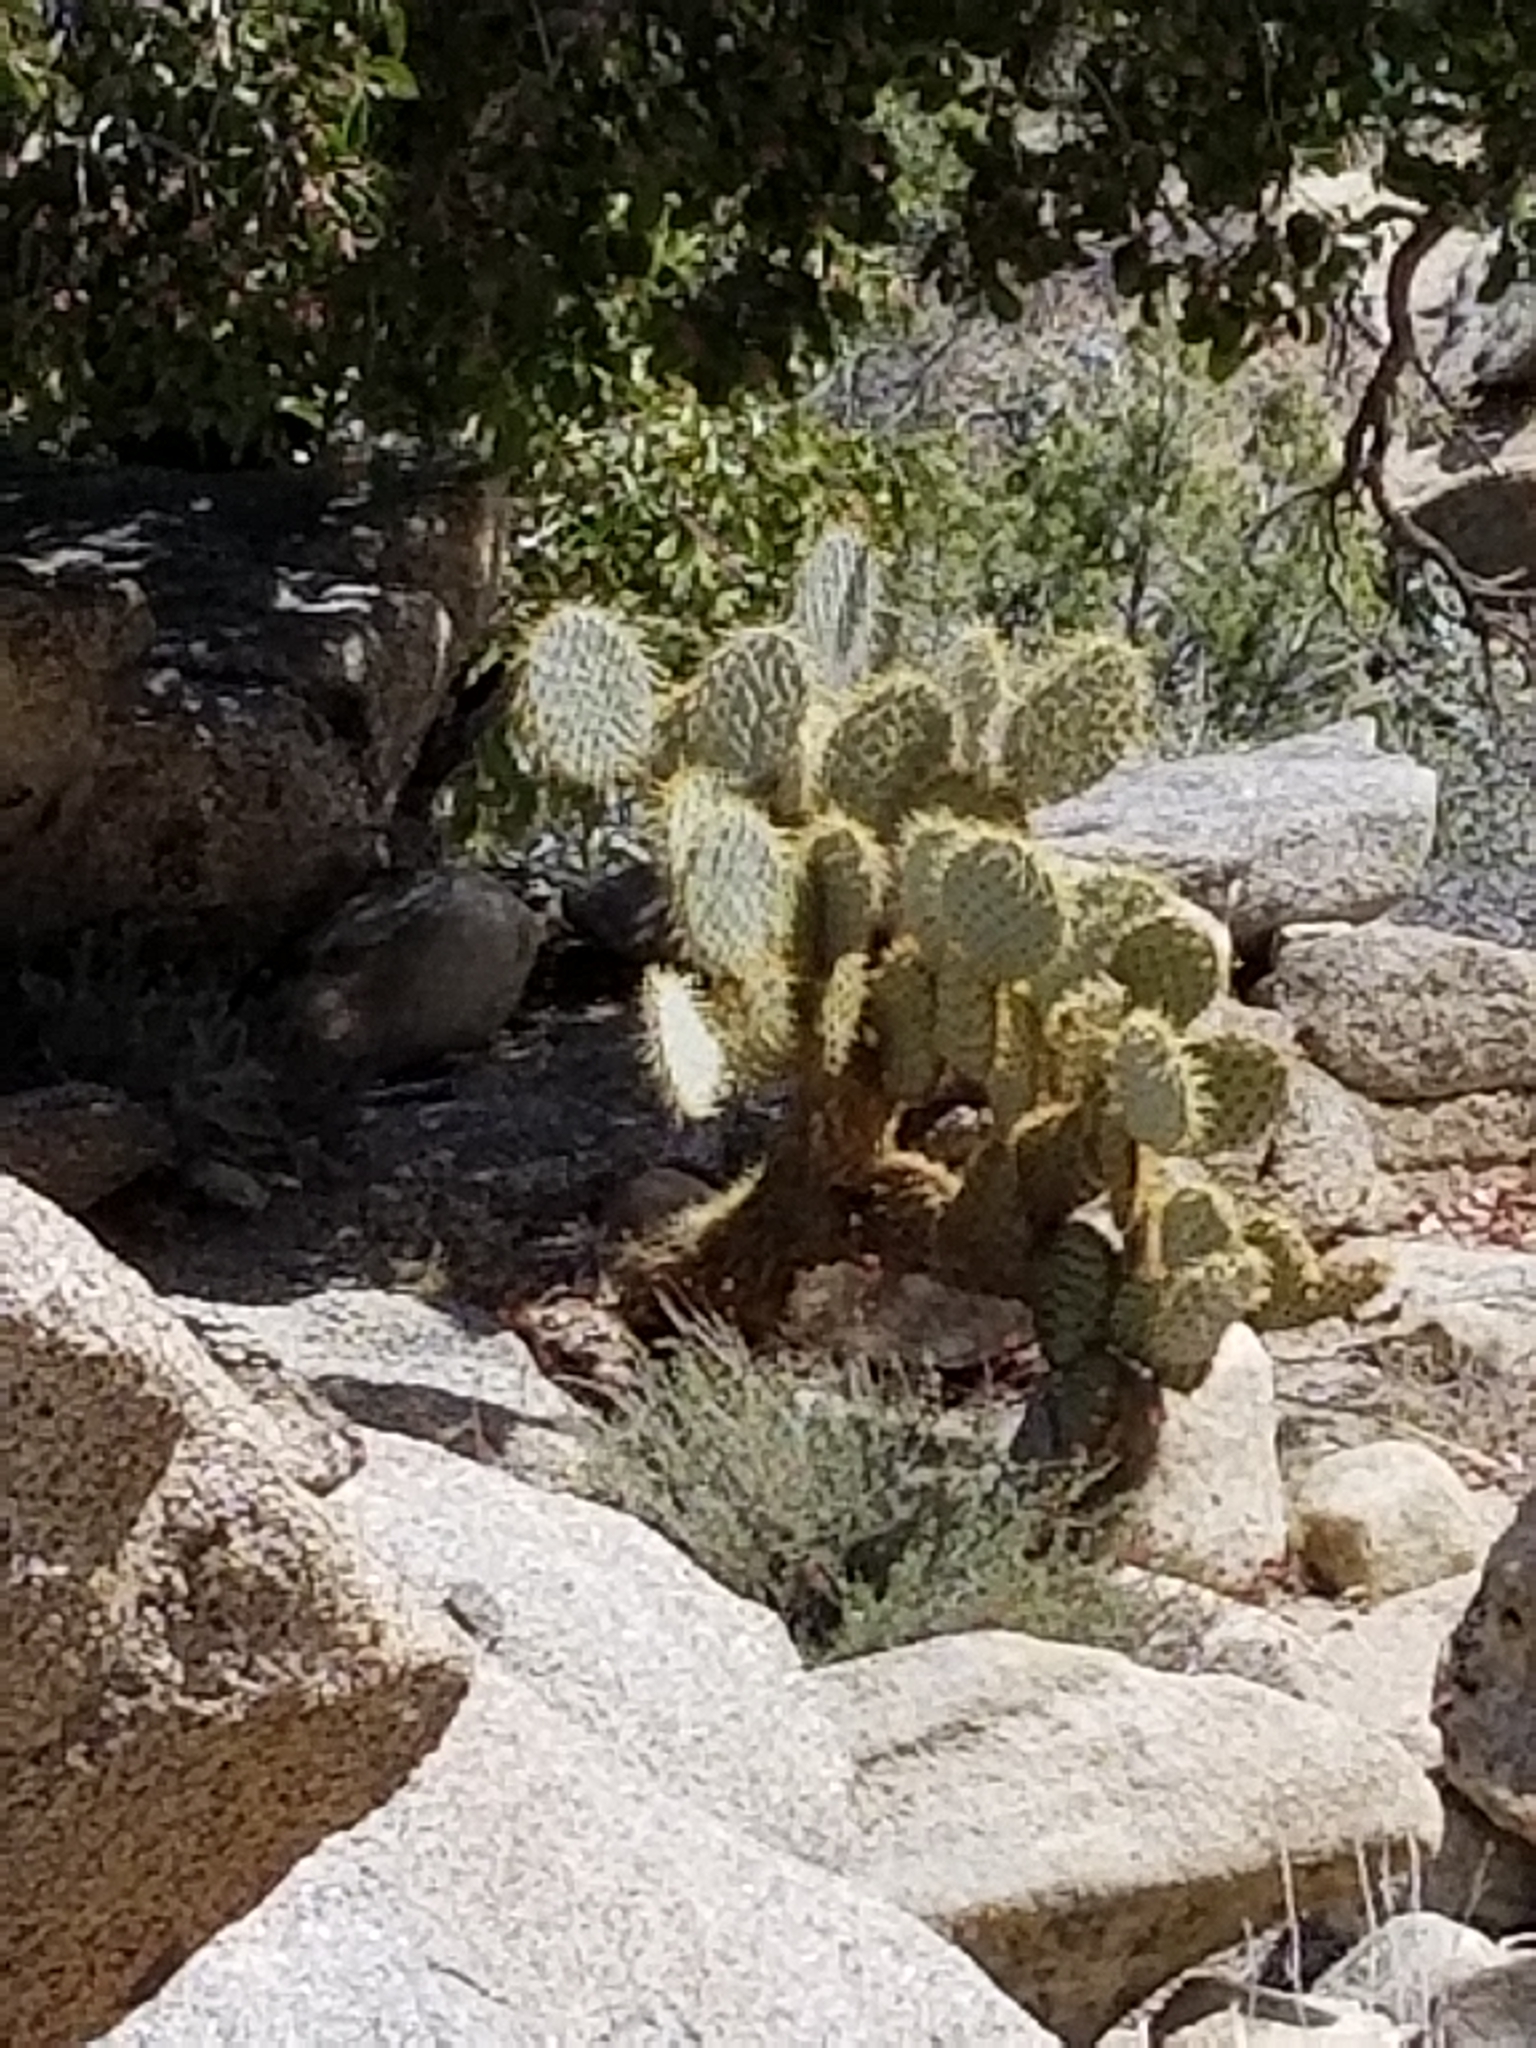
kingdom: Plantae
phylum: Tracheophyta
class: Magnoliopsida
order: Caryophyllales
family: Cactaceae
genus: Opuntia
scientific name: Opuntia chlorotica
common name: Dollar-joint prickly-pear
